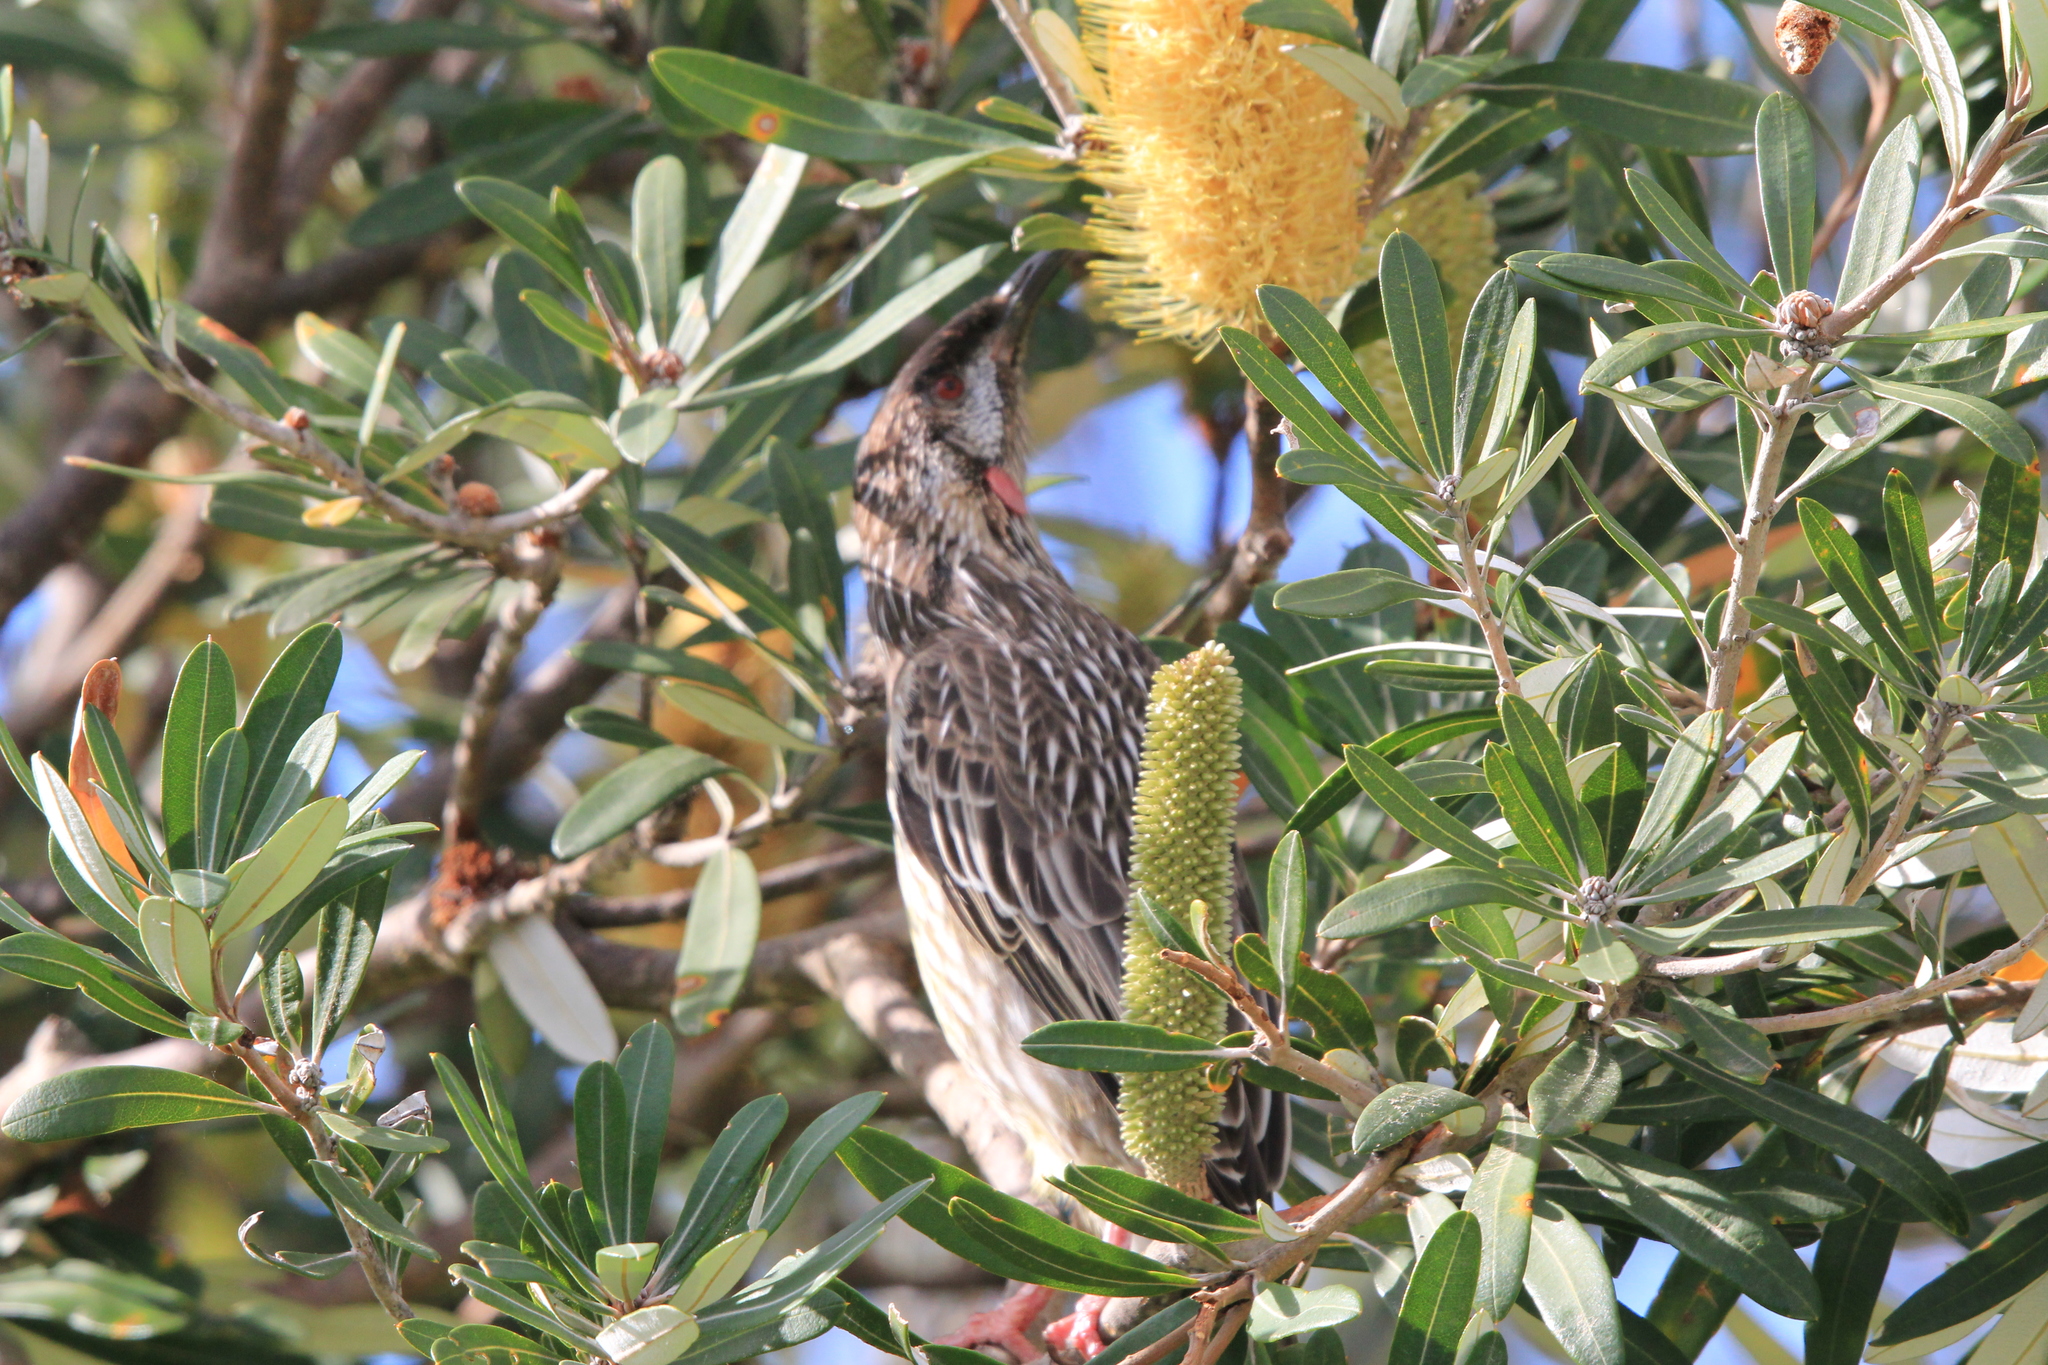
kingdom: Animalia
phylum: Chordata
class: Aves
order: Passeriformes
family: Meliphagidae
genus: Anthochaera
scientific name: Anthochaera carunculata
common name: Red wattlebird
